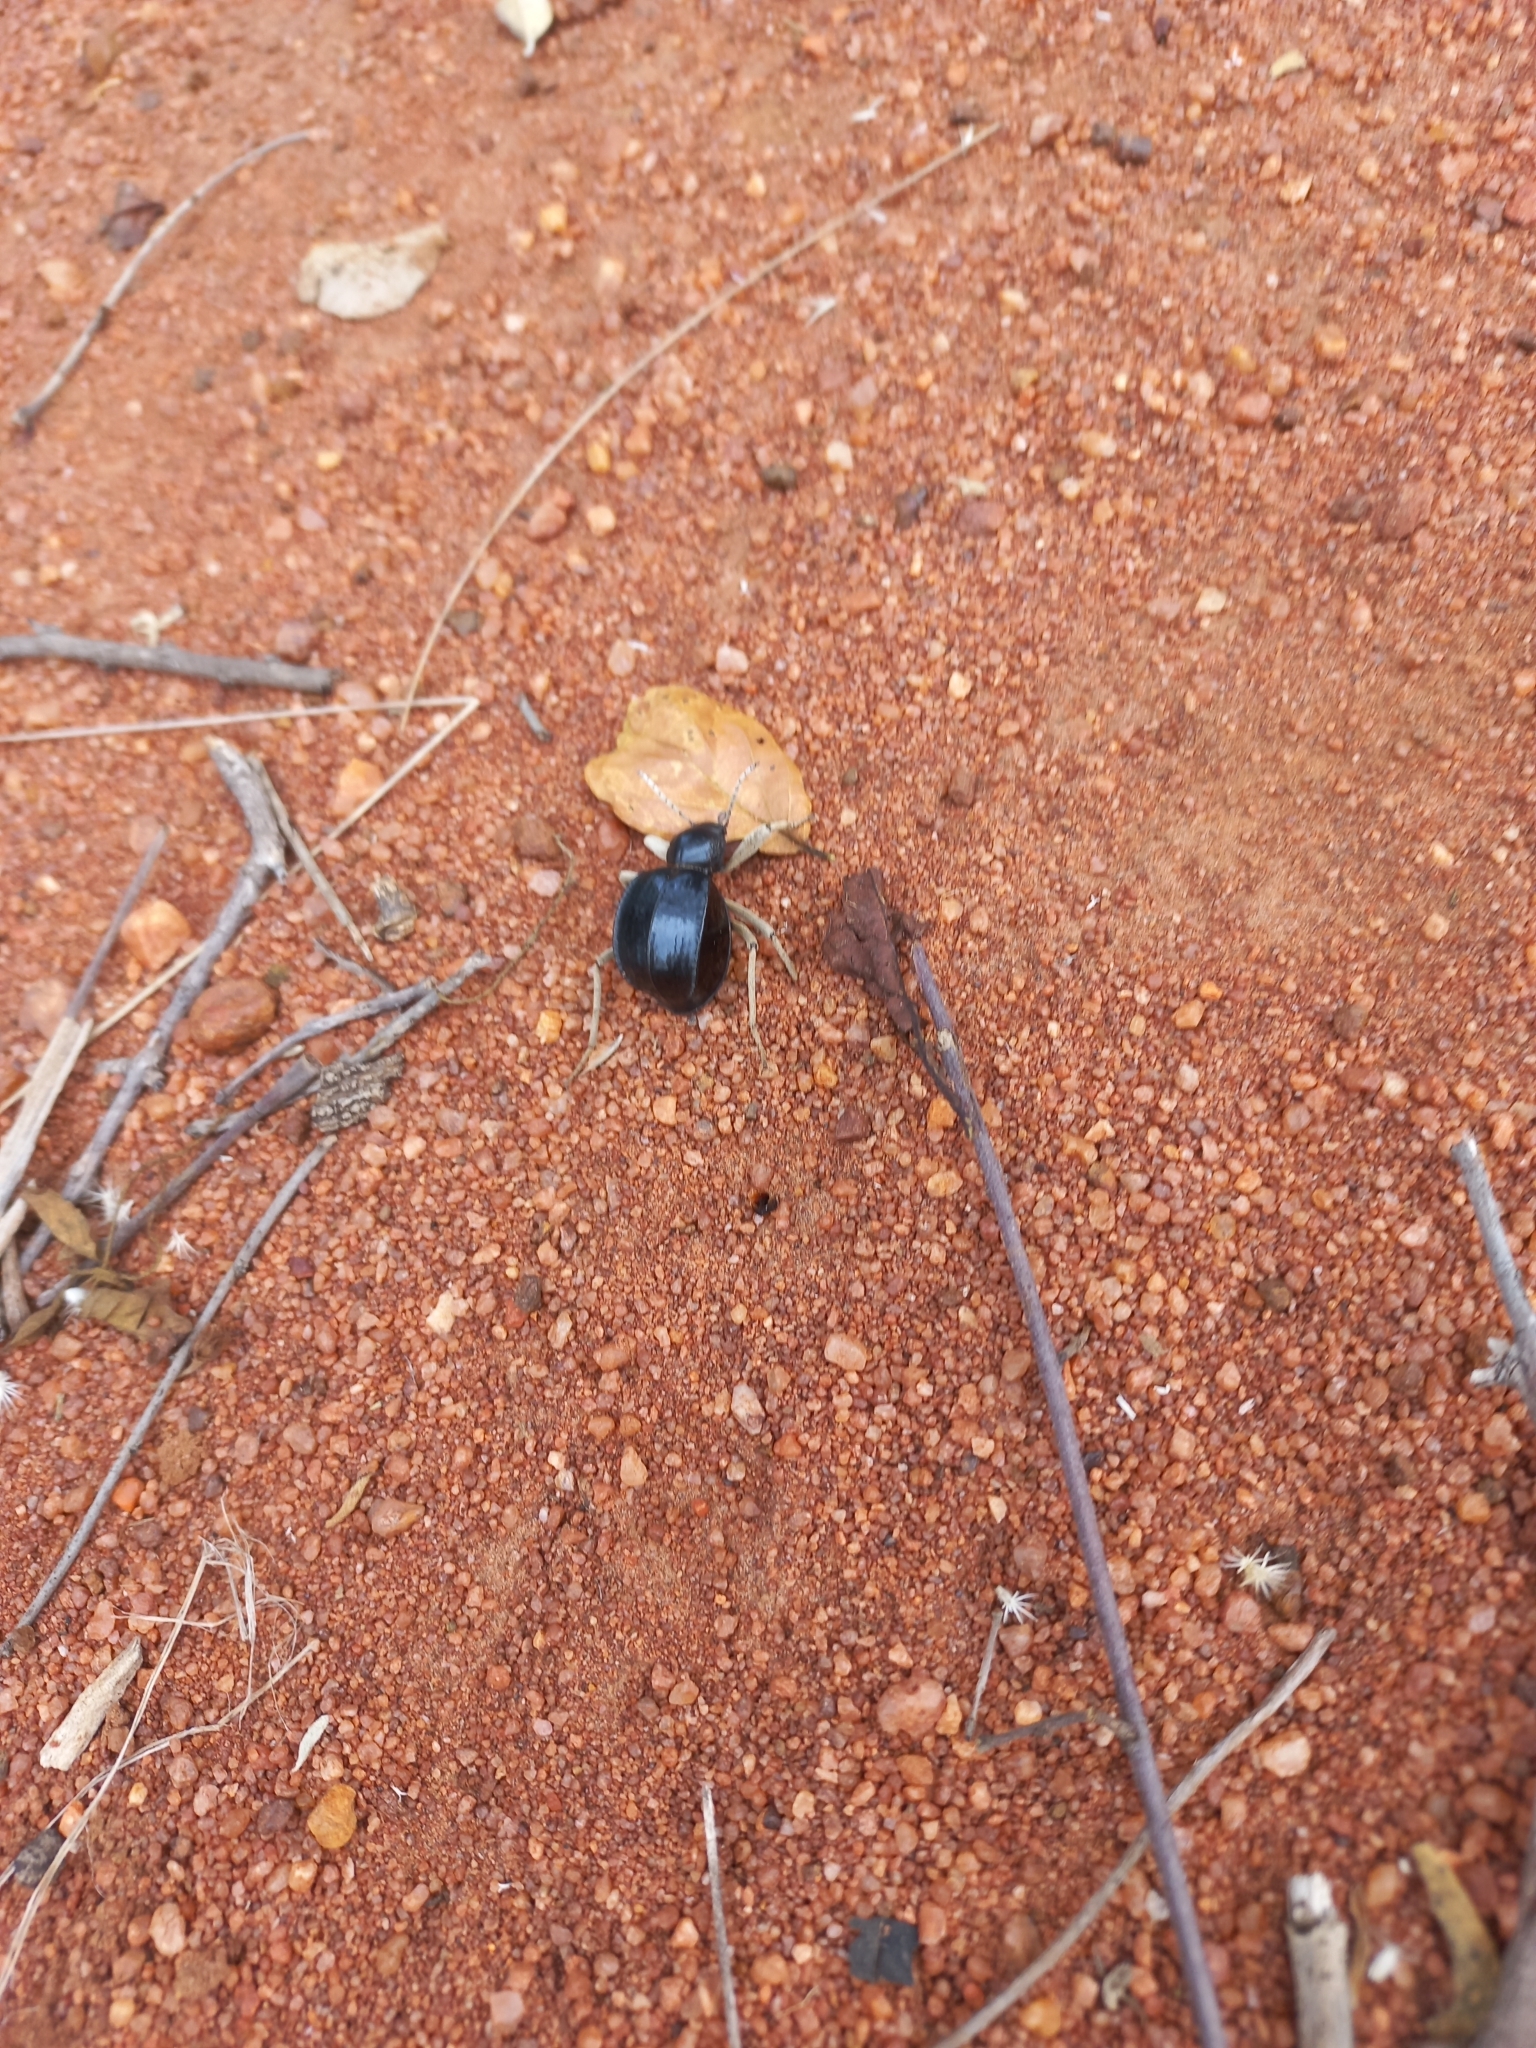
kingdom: Animalia
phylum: Arthropoda
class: Insecta
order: Coleoptera
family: Tenebrionidae
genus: Dichtha
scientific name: Dichtha cubica
